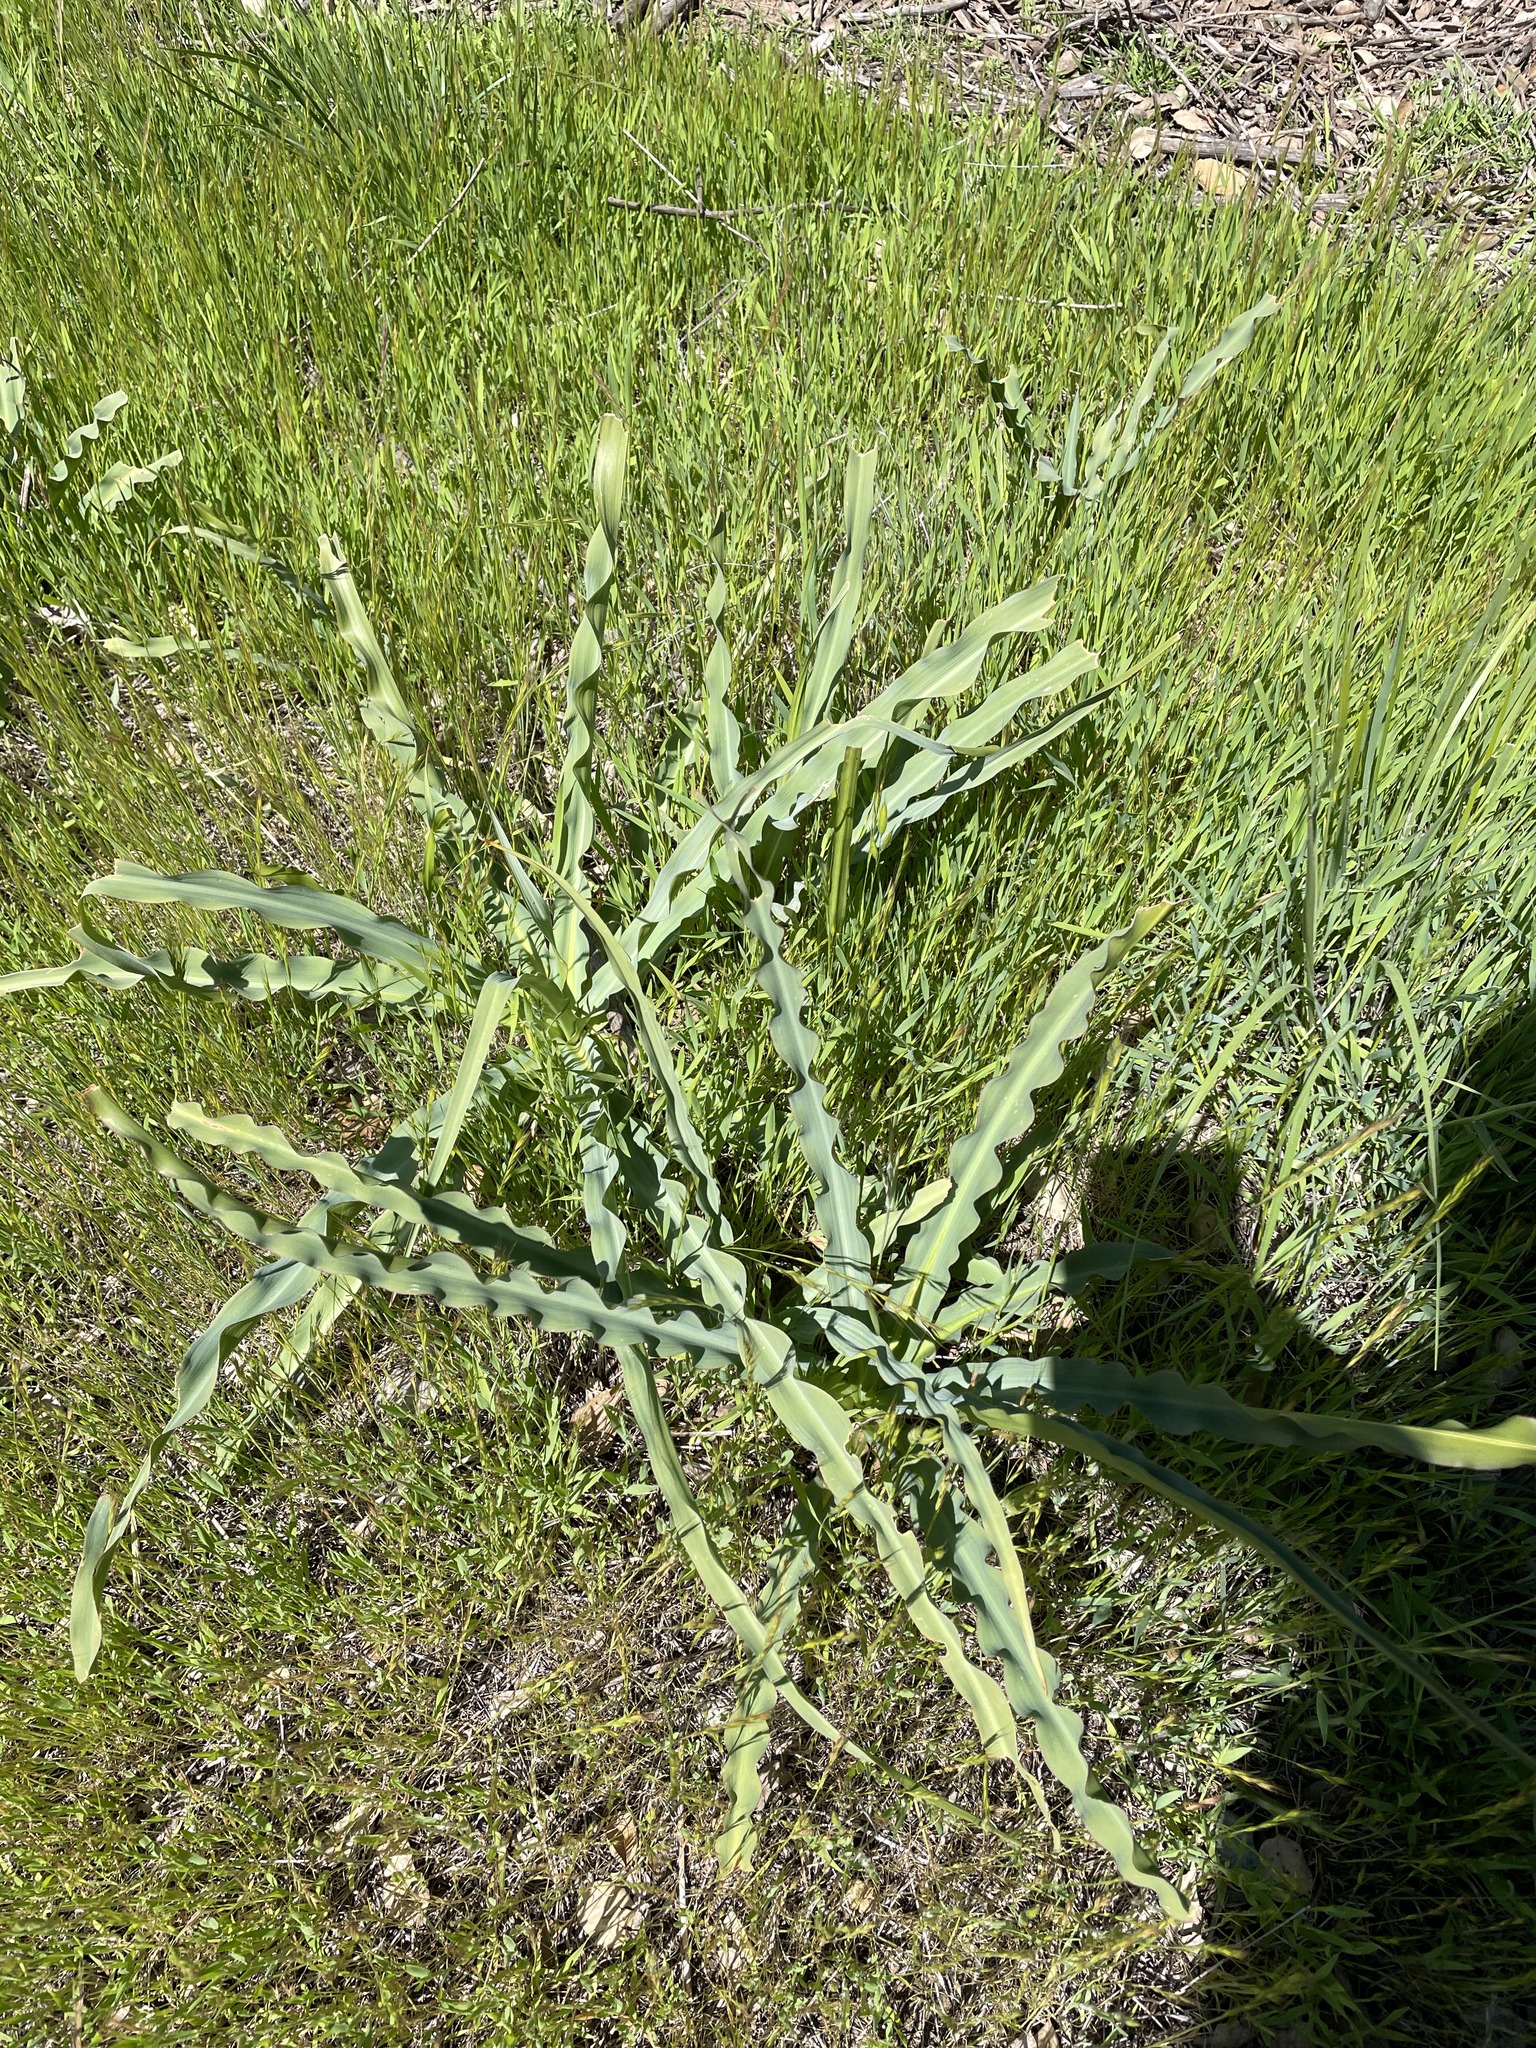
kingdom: Plantae
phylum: Tracheophyta
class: Liliopsida
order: Asparagales
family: Asparagaceae
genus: Chlorogalum
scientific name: Chlorogalum pomeridianum
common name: Amole
